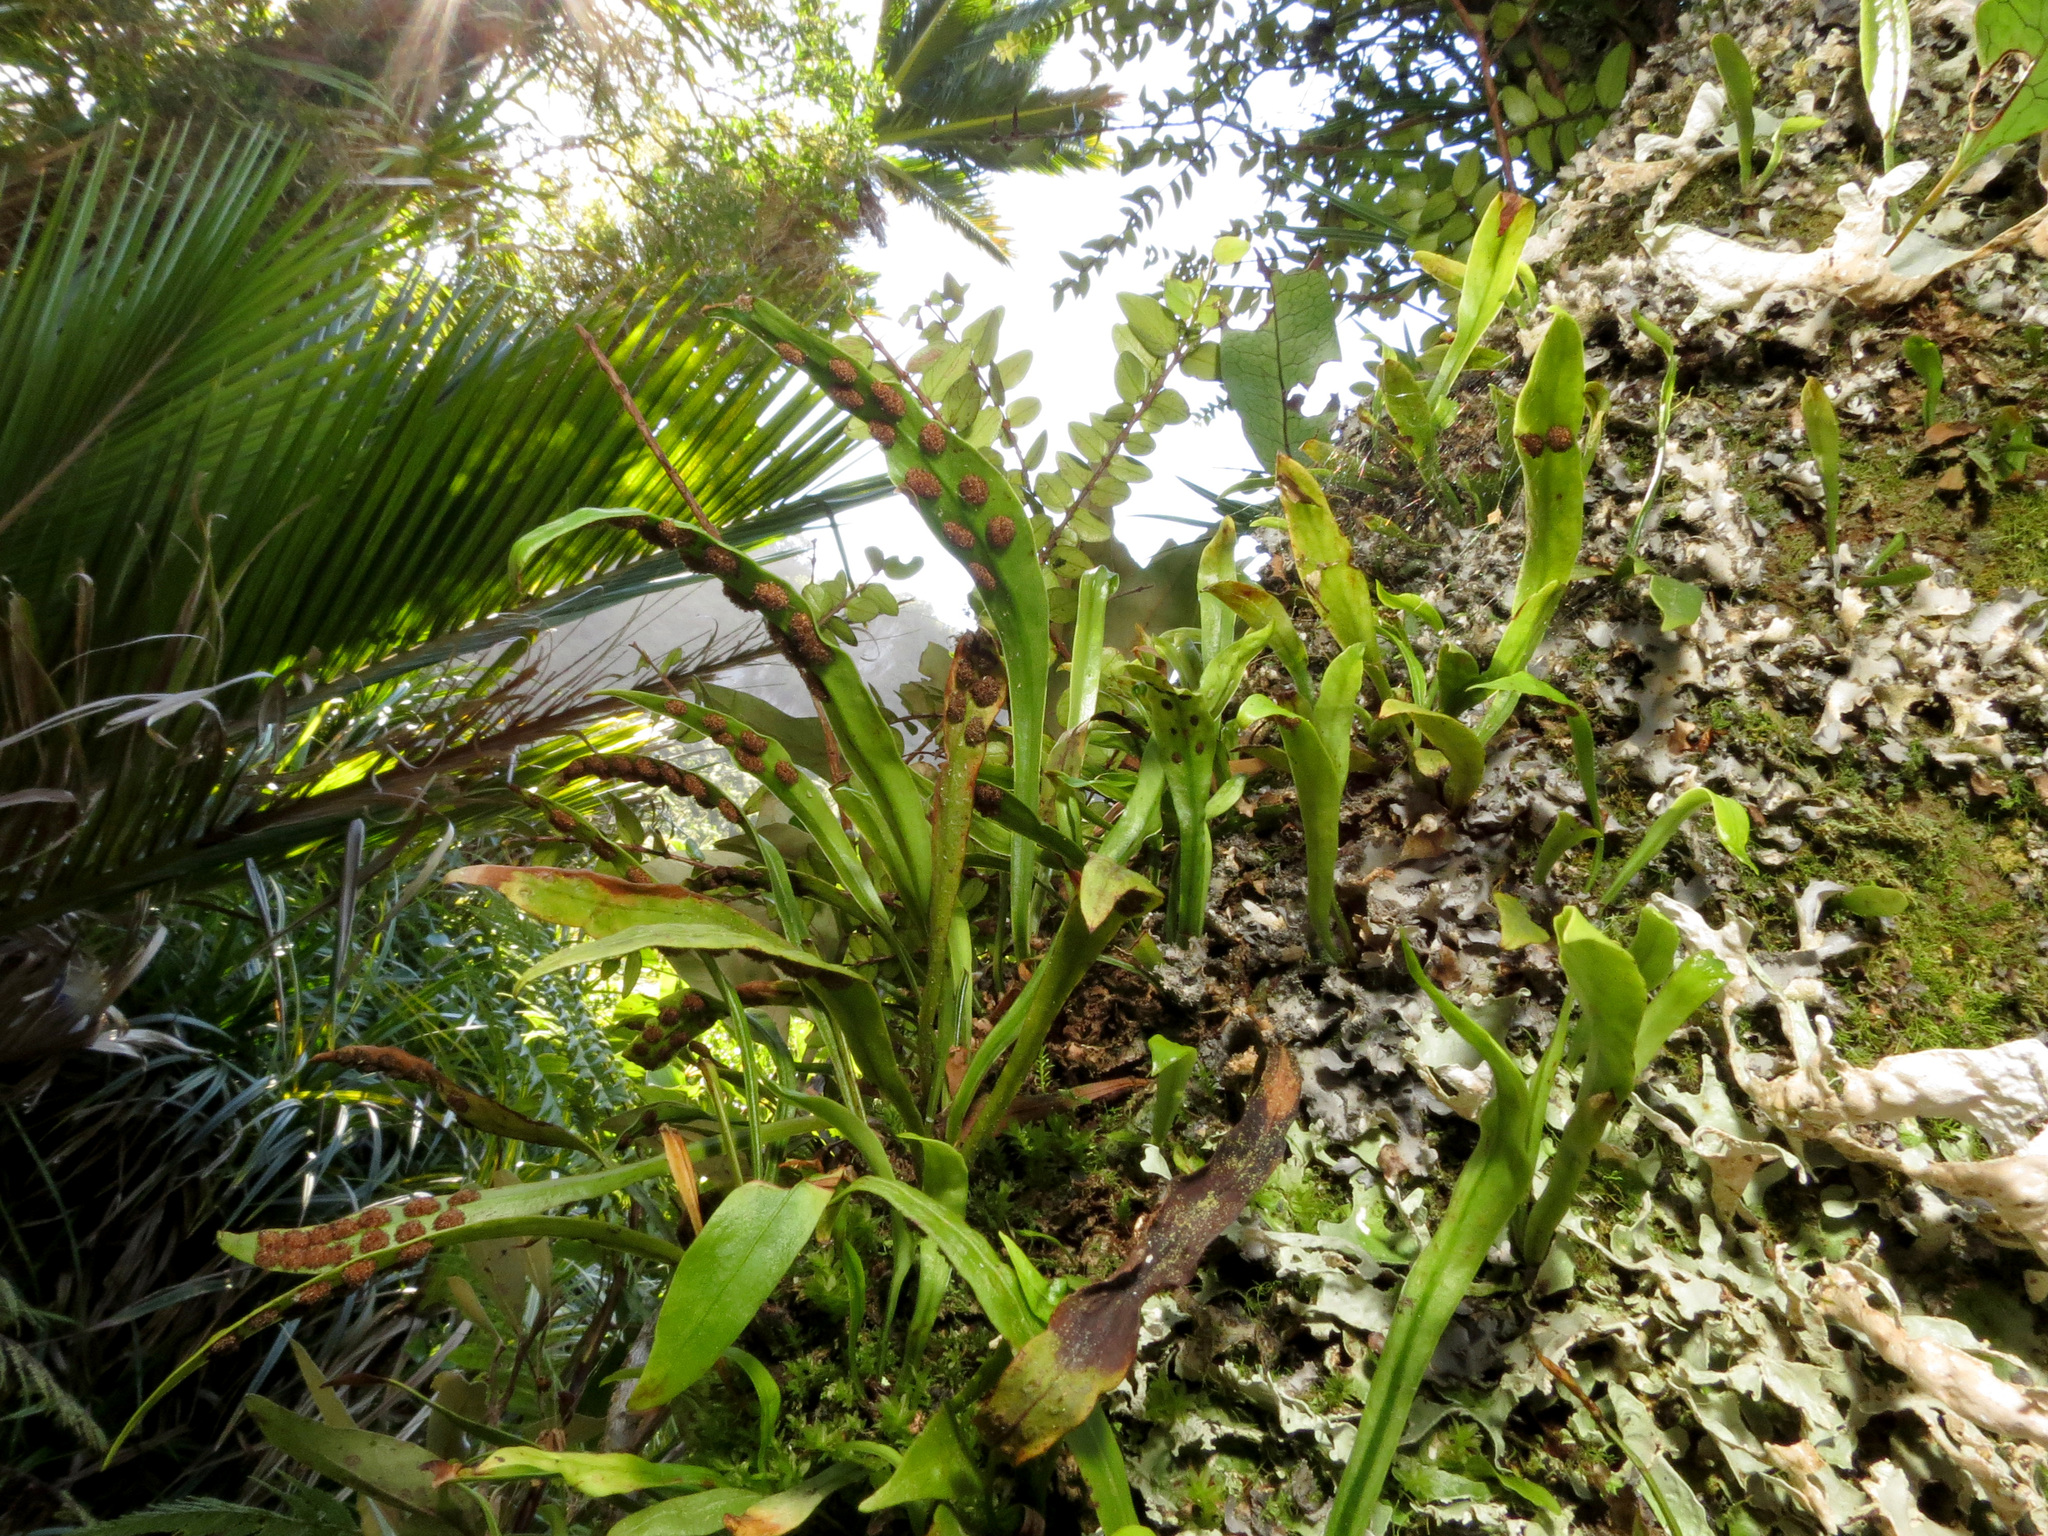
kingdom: Plantae
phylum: Tracheophyta
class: Polypodiopsida
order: Polypodiales
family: Polypodiaceae
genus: Loxogramme
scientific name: Loxogramme dictyopteris
